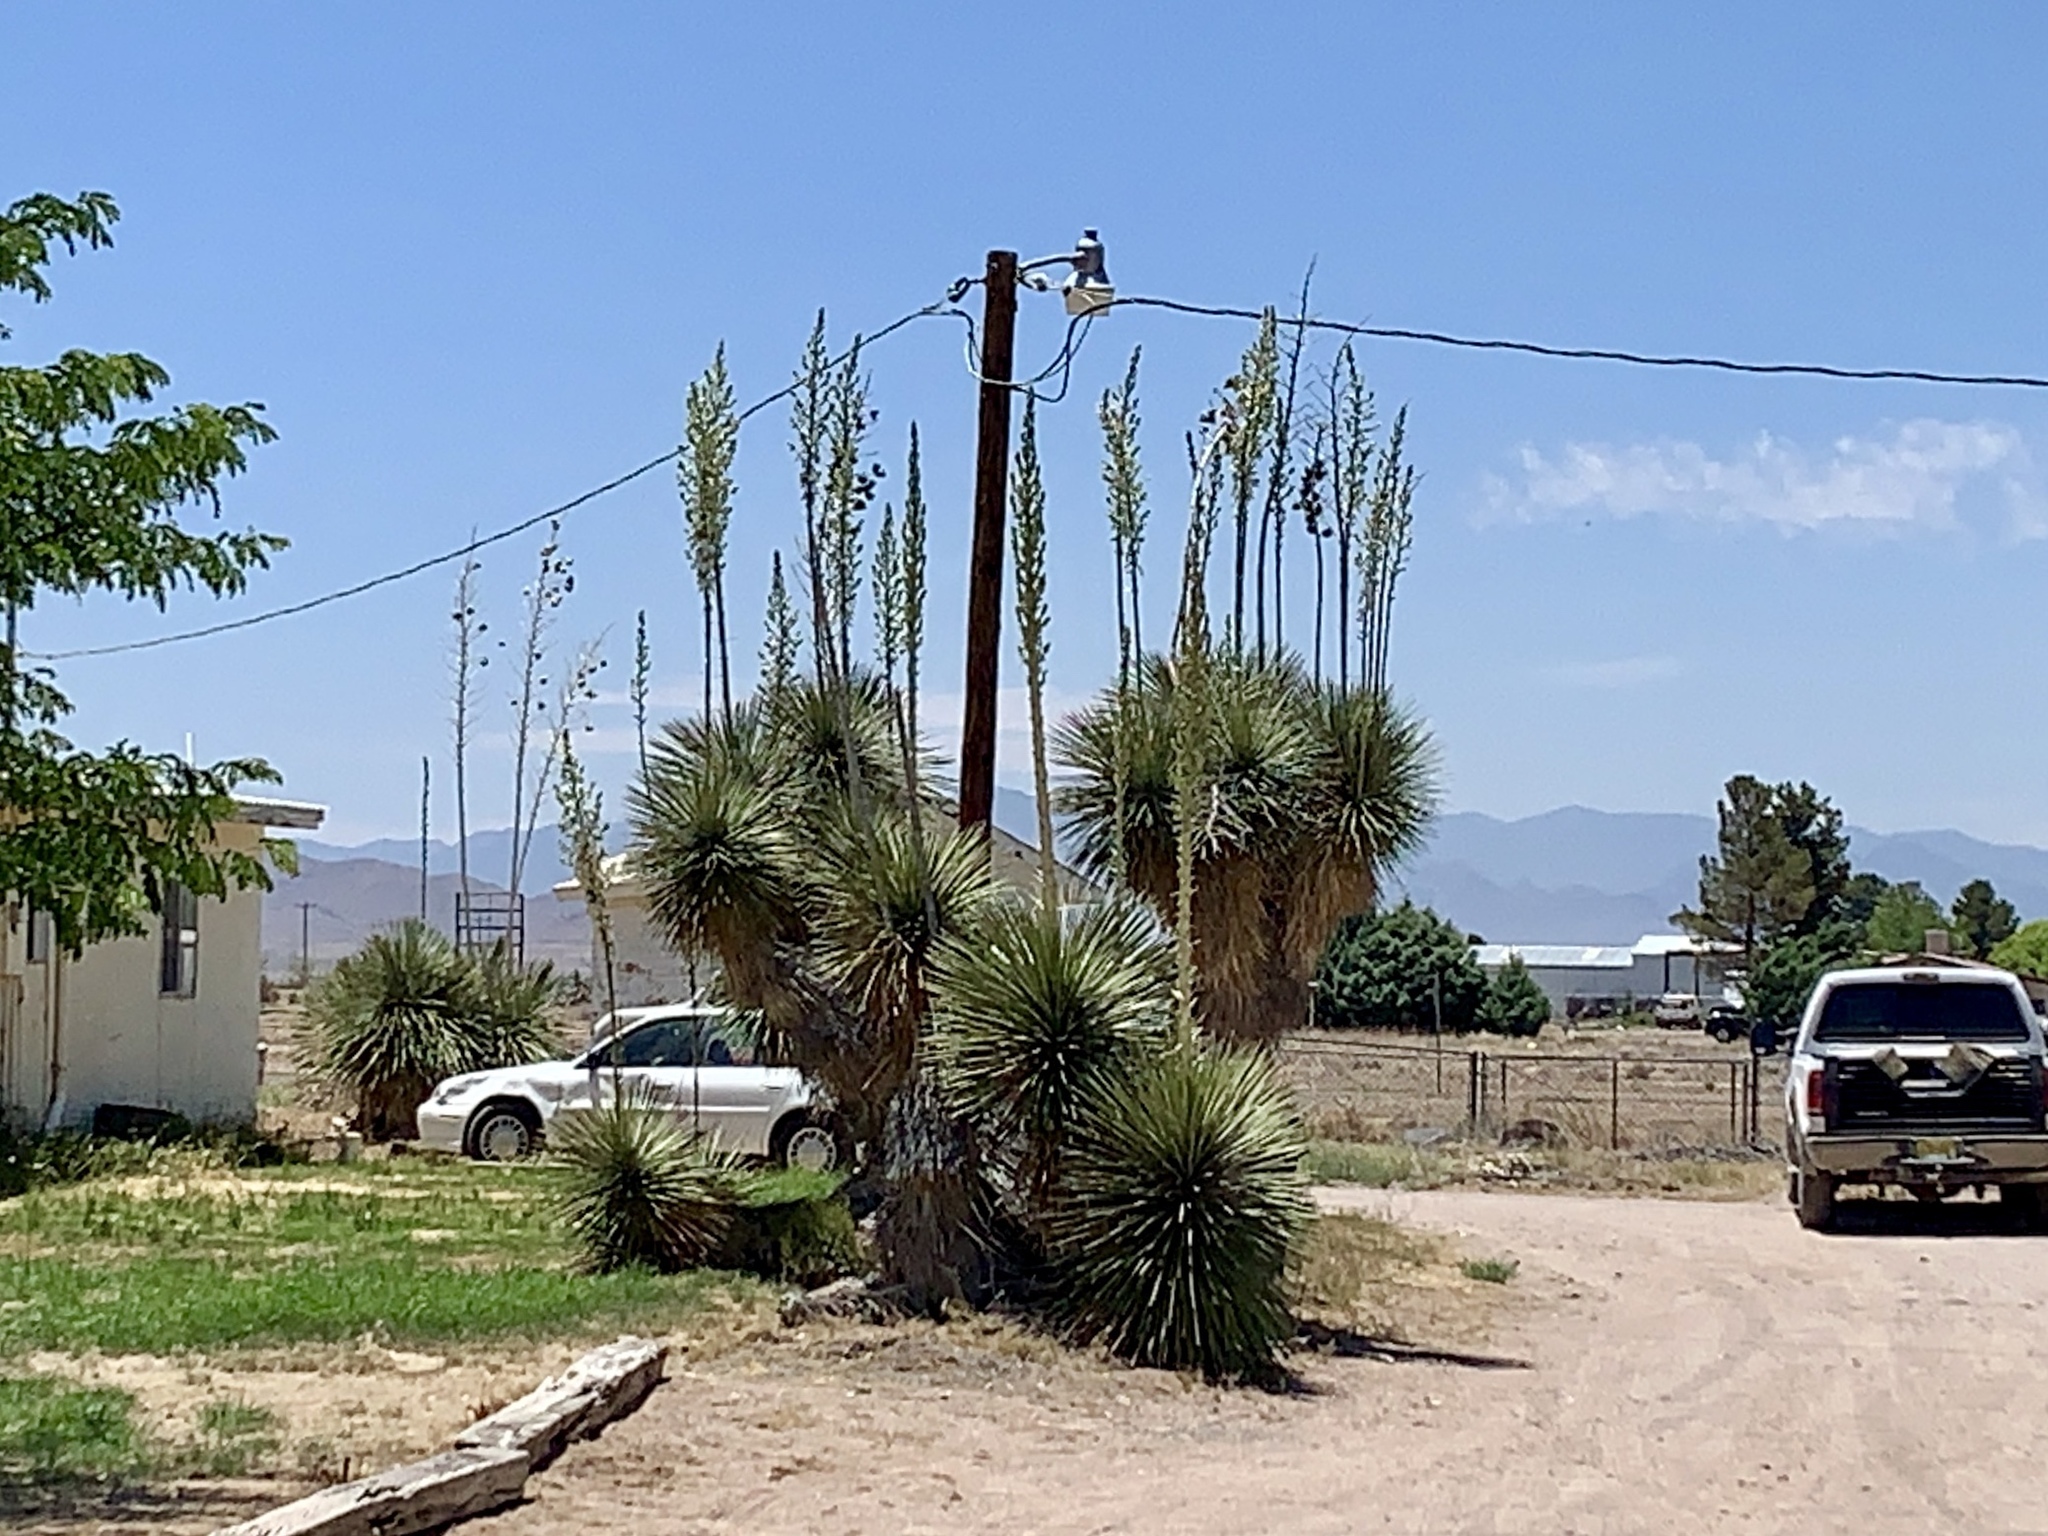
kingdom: Plantae
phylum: Tracheophyta
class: Liliopsida
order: Asparagales
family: Asparagaceae
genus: Yucca
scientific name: Yucca elata
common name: Palmella
